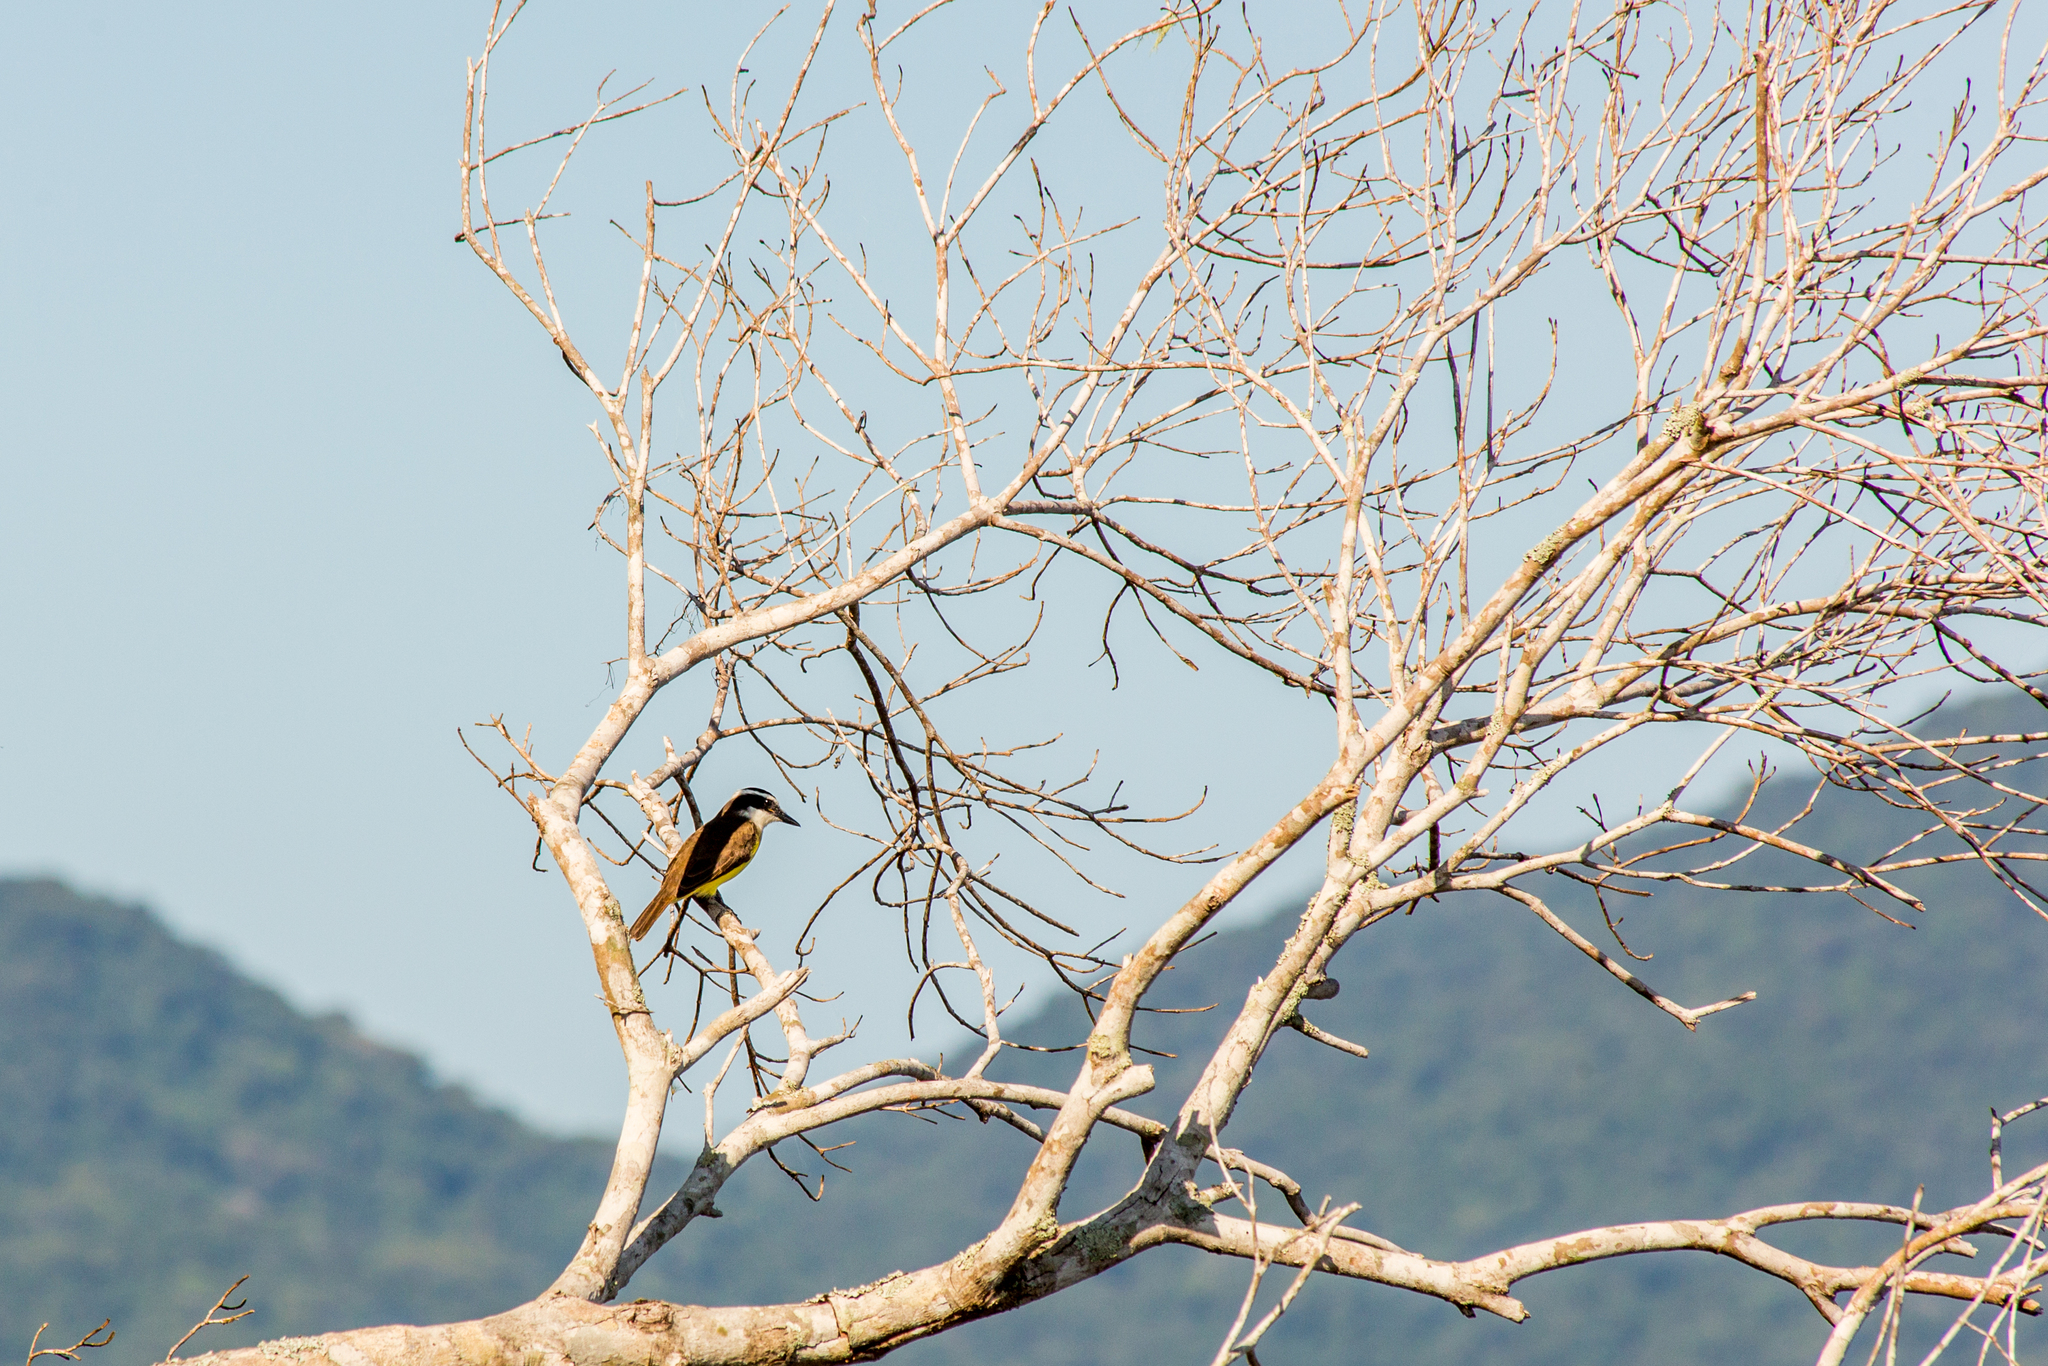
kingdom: Animalia
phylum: Chordata
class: Aves
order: Passeriformes
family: Tyrannidae
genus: Pitangus
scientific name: Pitangus sulphuratus
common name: Great kiskadee
